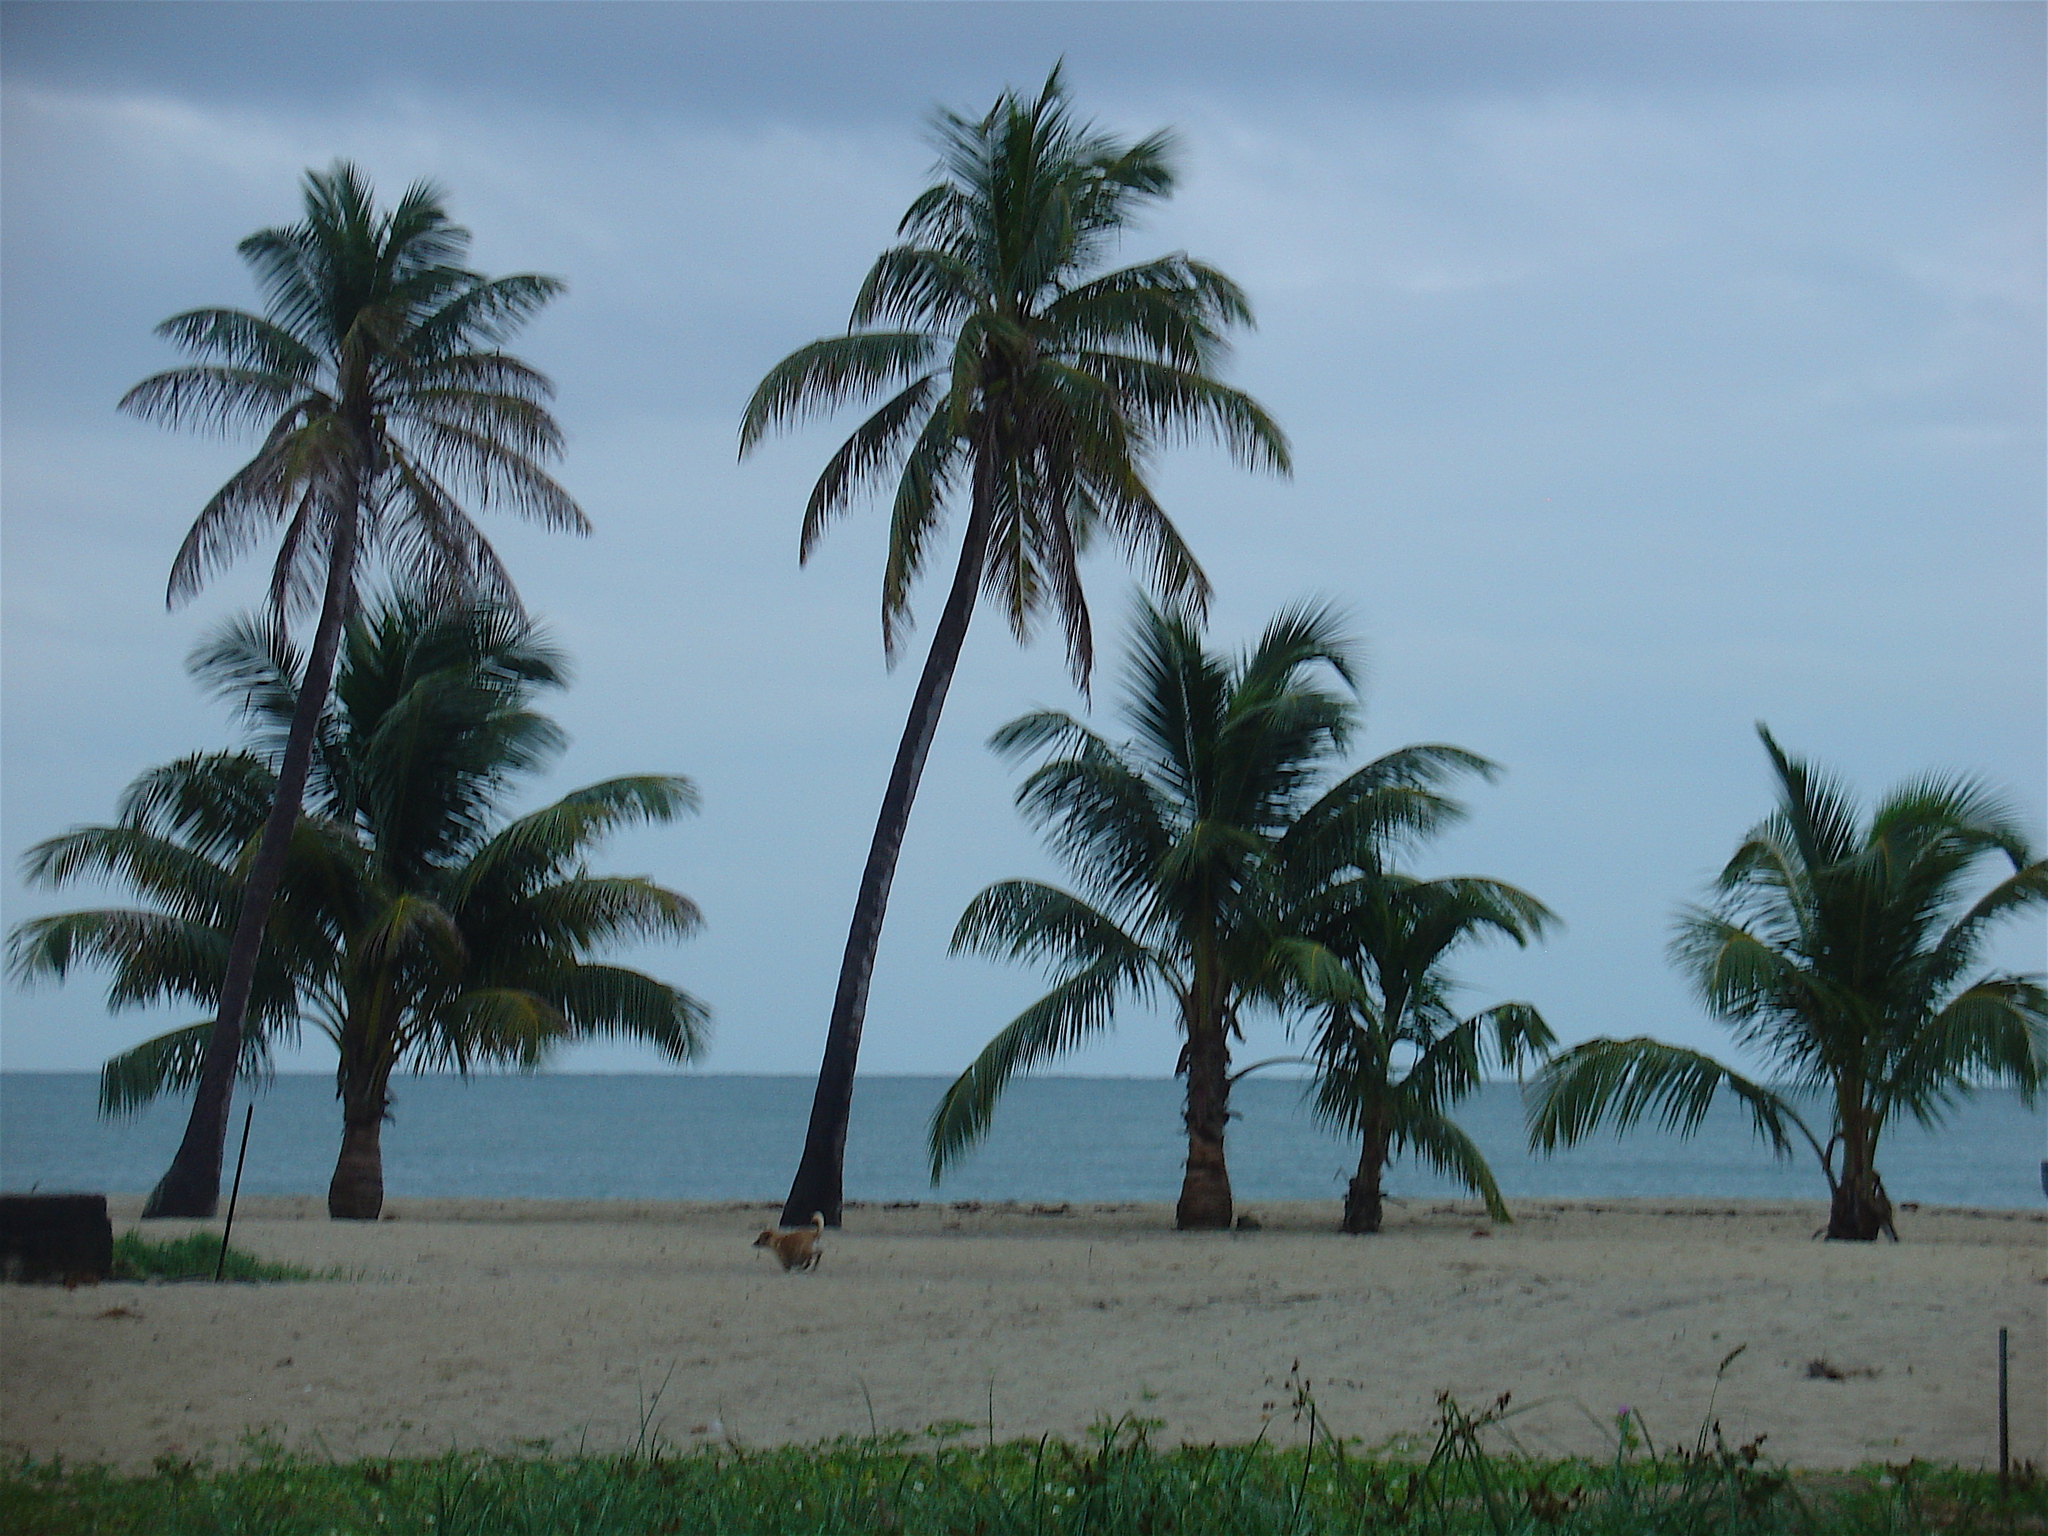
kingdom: Plantae
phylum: Tracheophyta
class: Liliopsida
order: Arecales
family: Arecaceae
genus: Cocos
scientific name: Cocos nucifera
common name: Coconut palm
